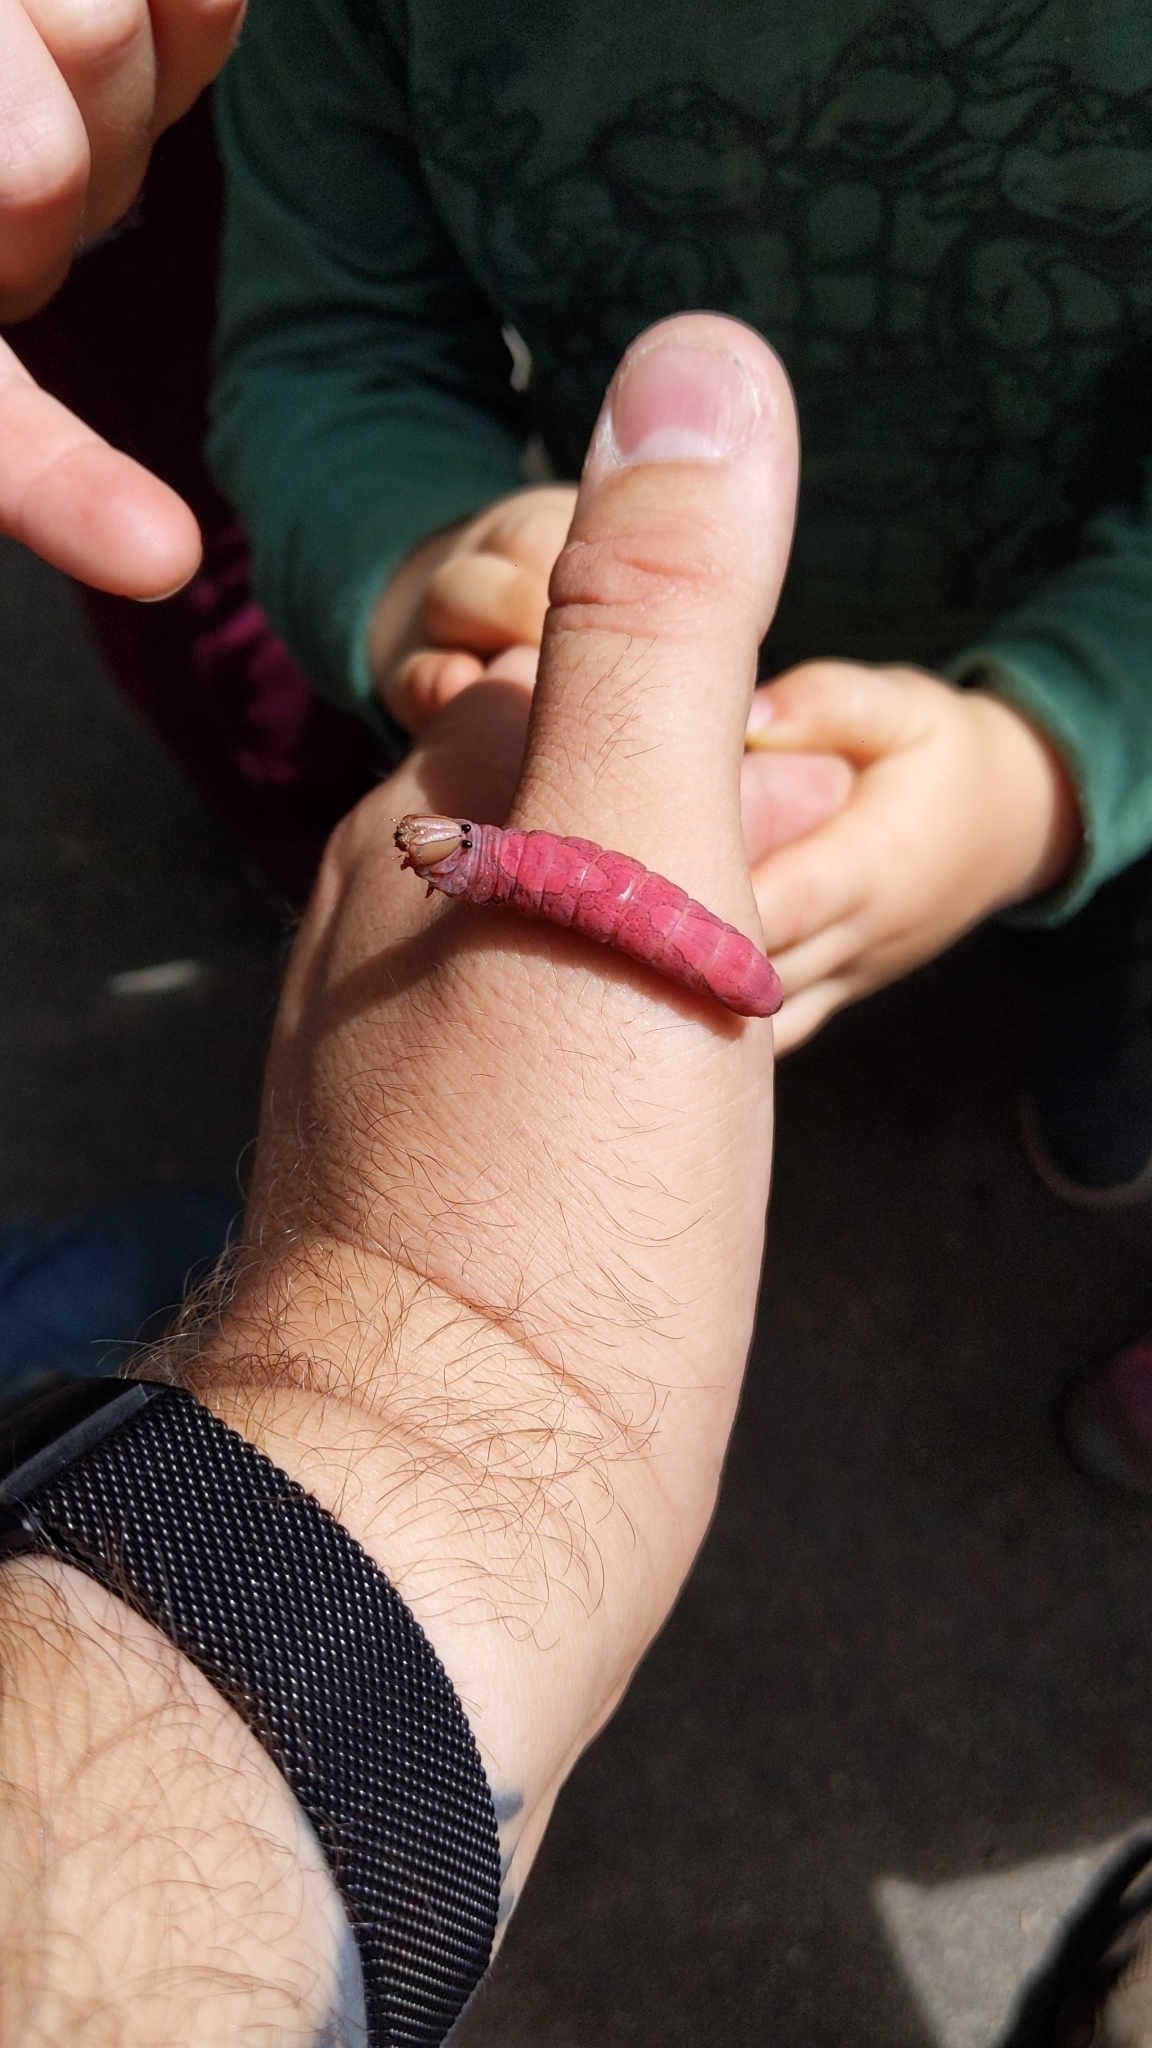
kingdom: Animalia
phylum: Arthropoda
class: Insecta
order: Lepidoptera
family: Notodontidae
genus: Heterocampa
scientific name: Heterocampa
